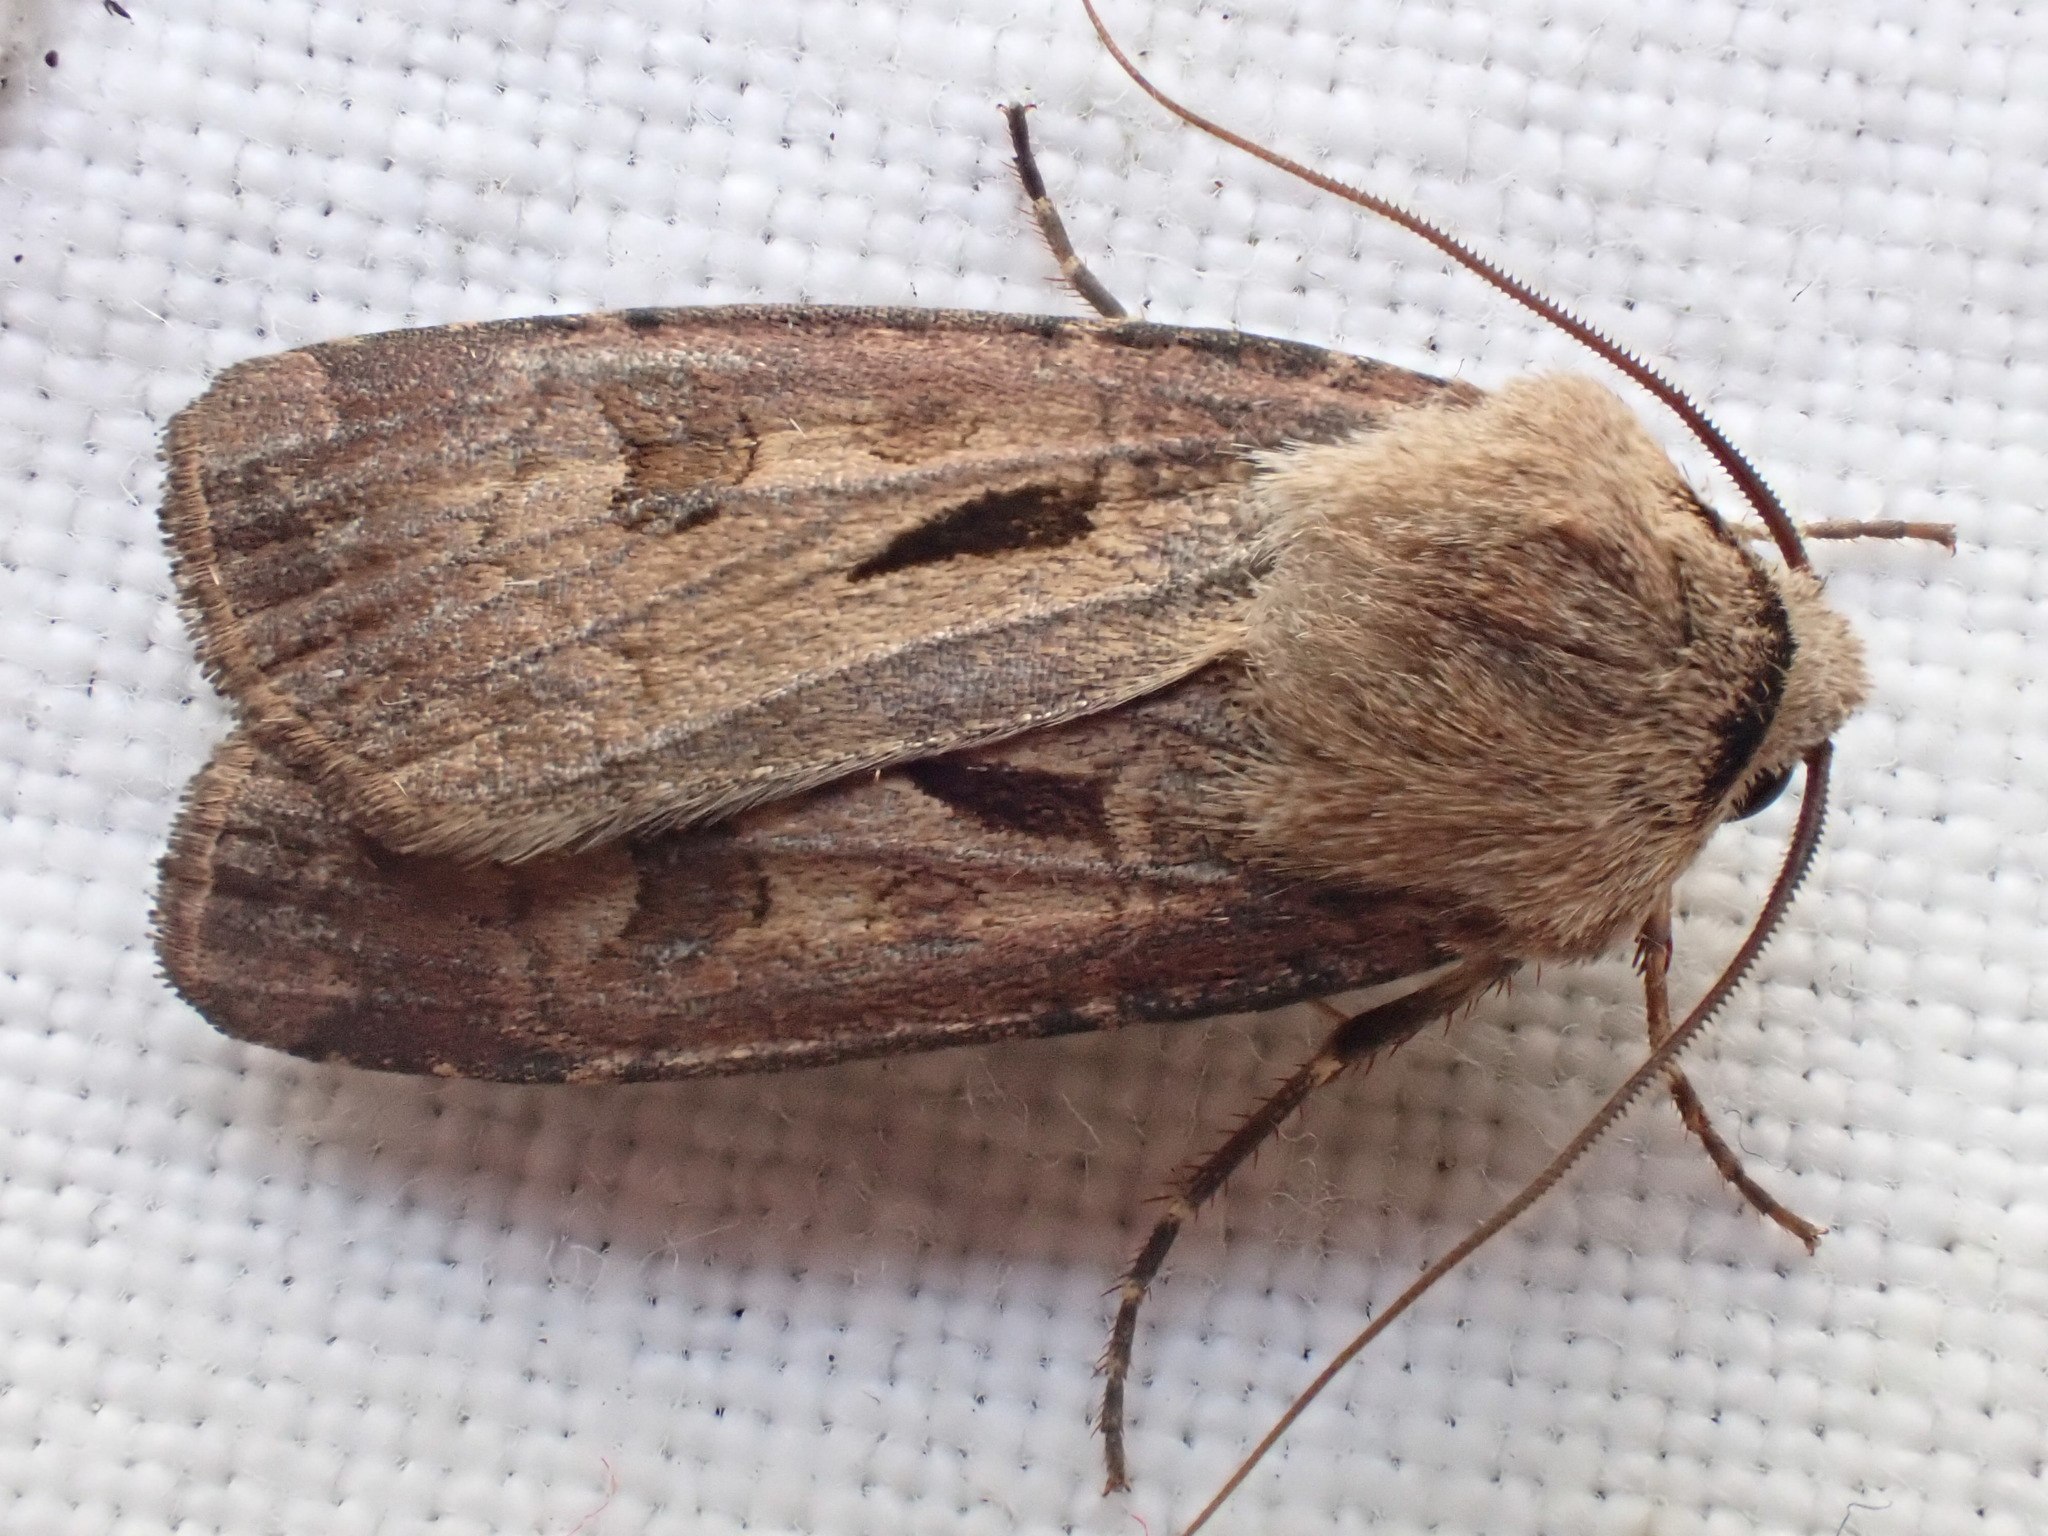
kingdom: Animalia
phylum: Arthropoda
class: Insecta
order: Lepidoptera
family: Noctuidae
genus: Agrotis
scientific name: Agrotis exclamationis
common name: Heart and dart
